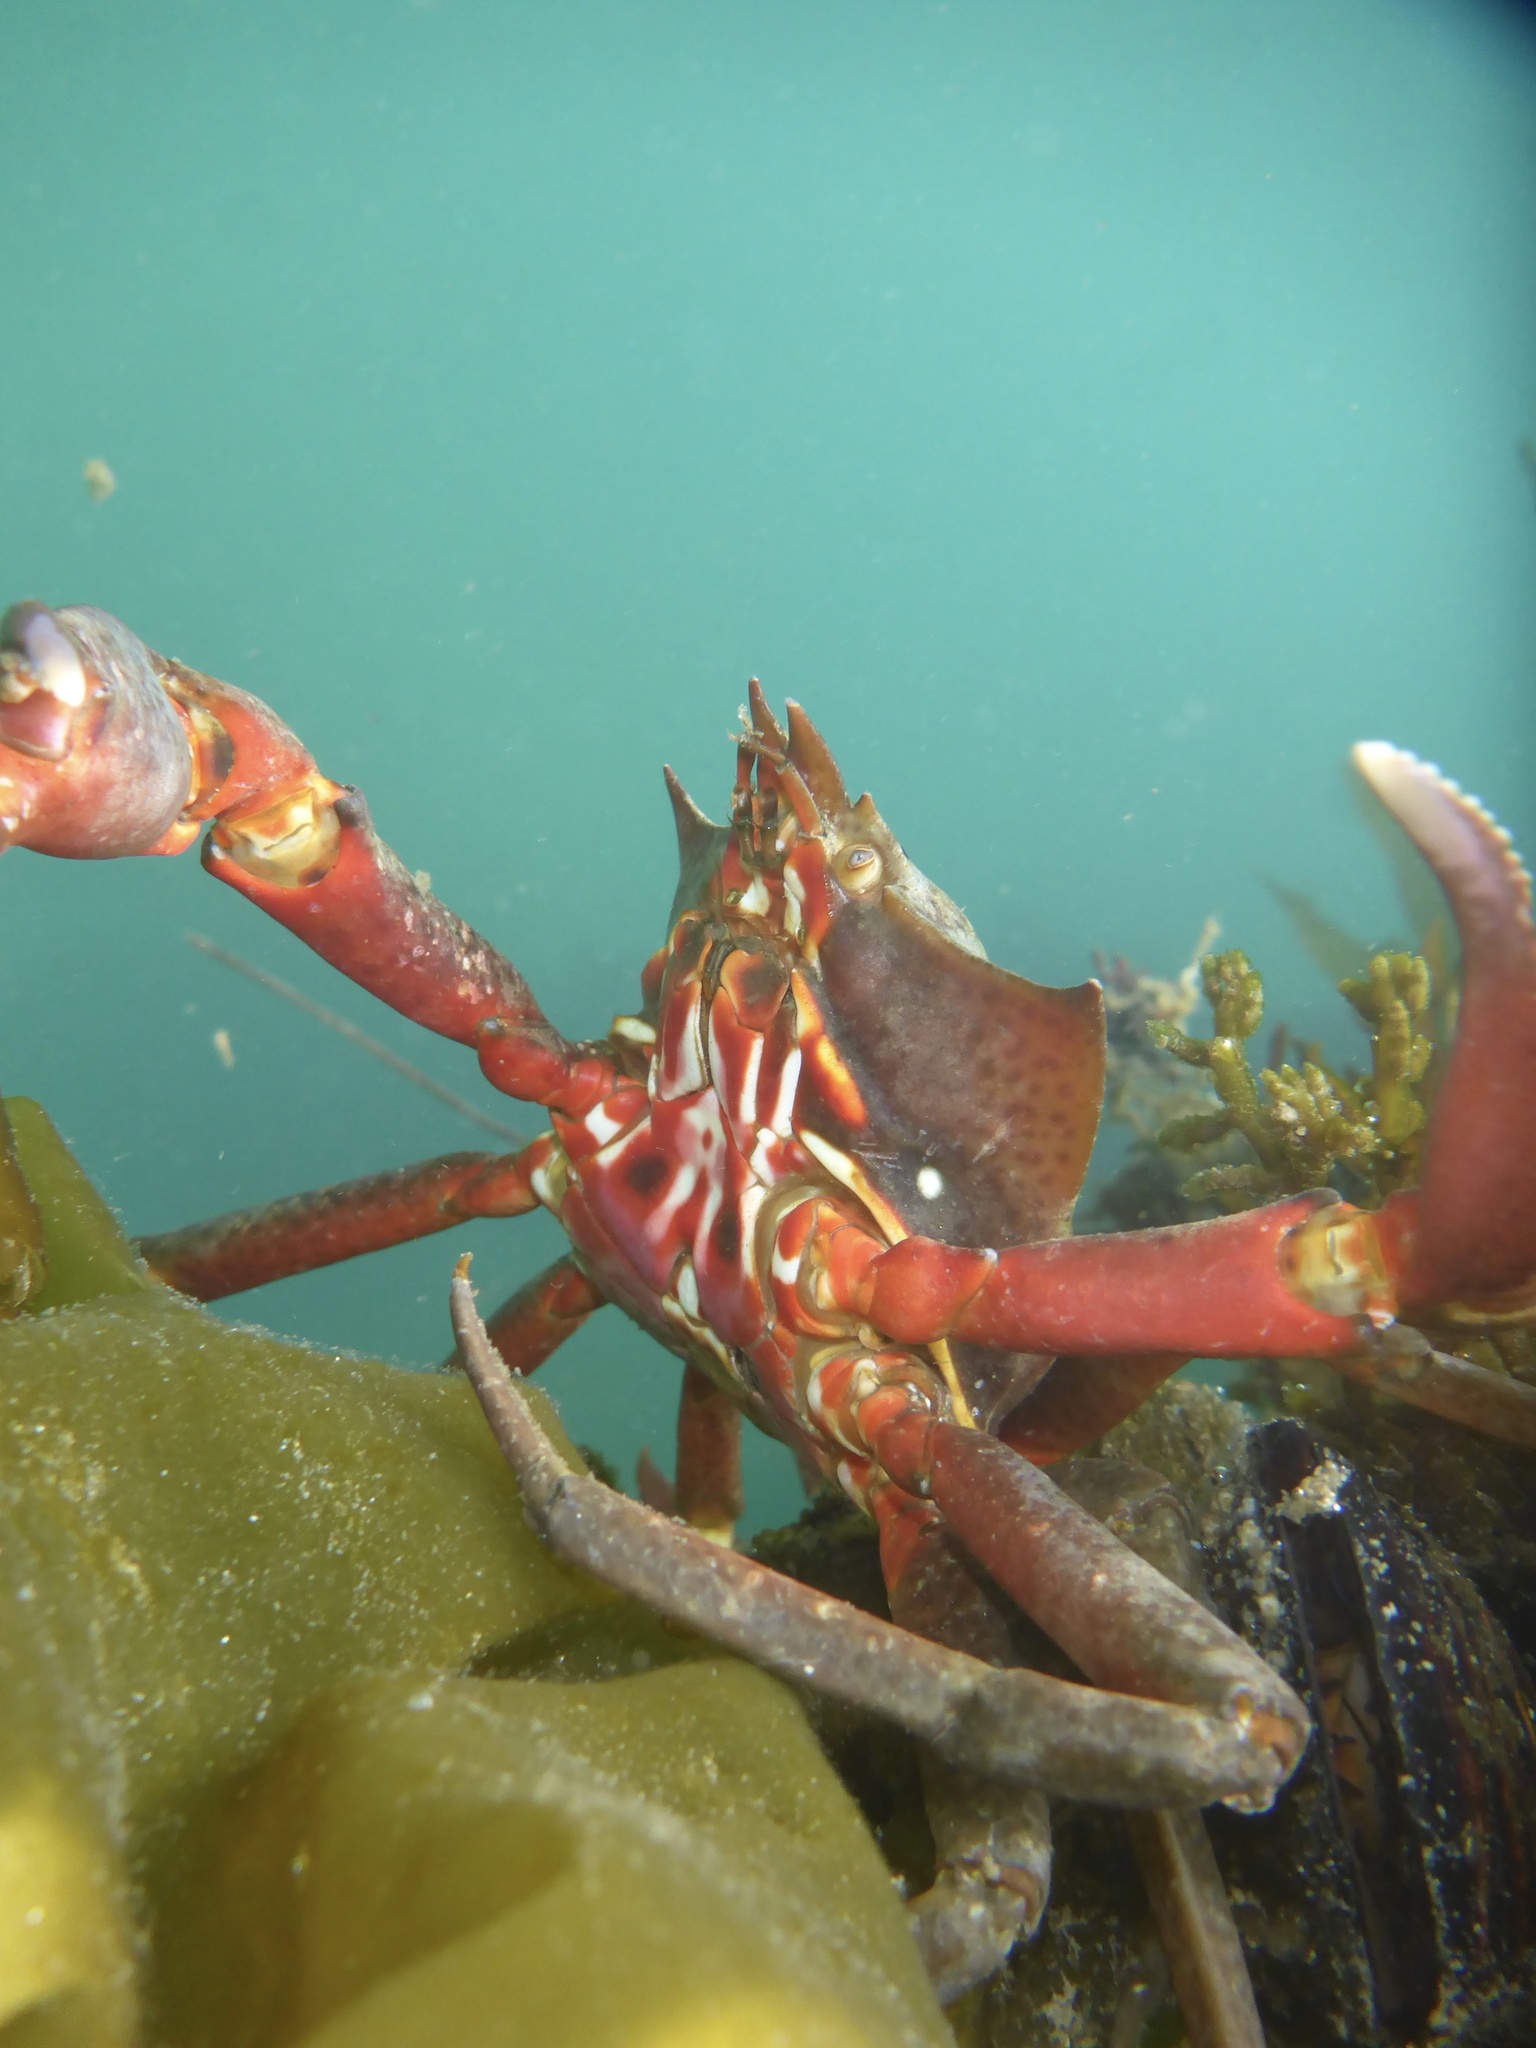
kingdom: Animalia
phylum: Arthropoda
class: Malacostraca
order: Decapoda
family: Epialtidae
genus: Pugettia
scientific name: Pugettia producta
